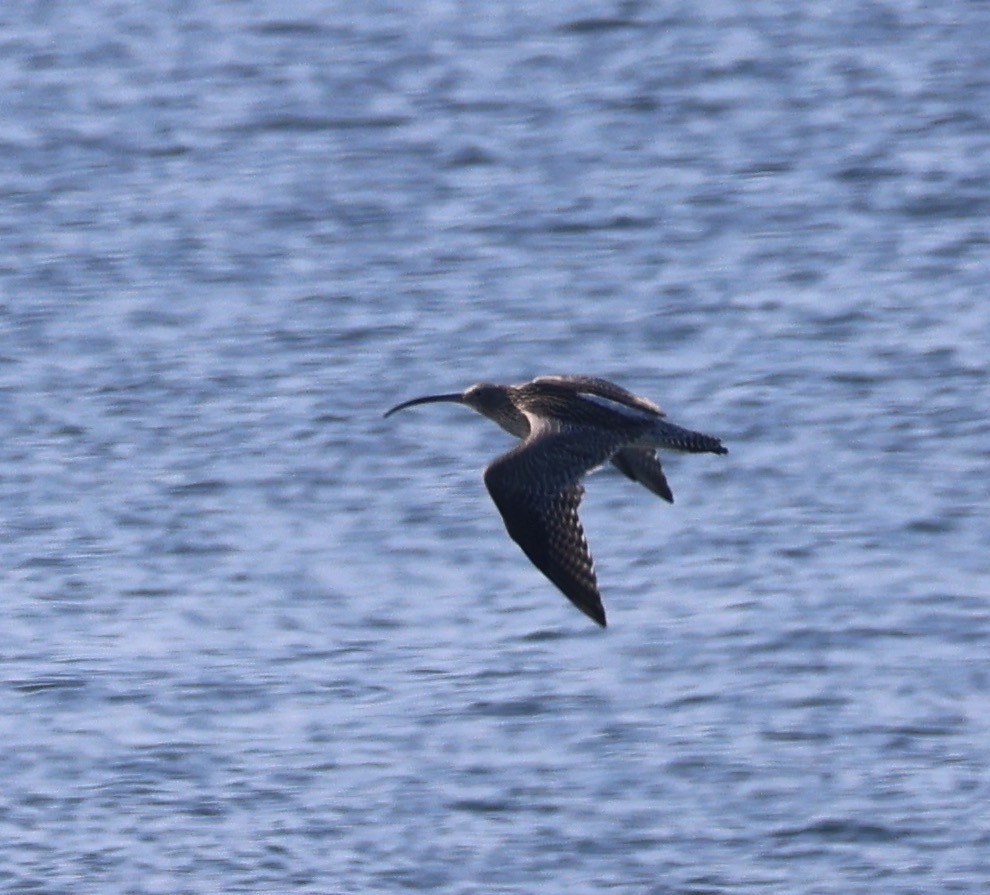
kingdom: Animalia
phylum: Chordata
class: Aves
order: Charadriiformes
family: Scolopacidae
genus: Numenius
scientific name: Numenius arquata
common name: Eurasian curlew
